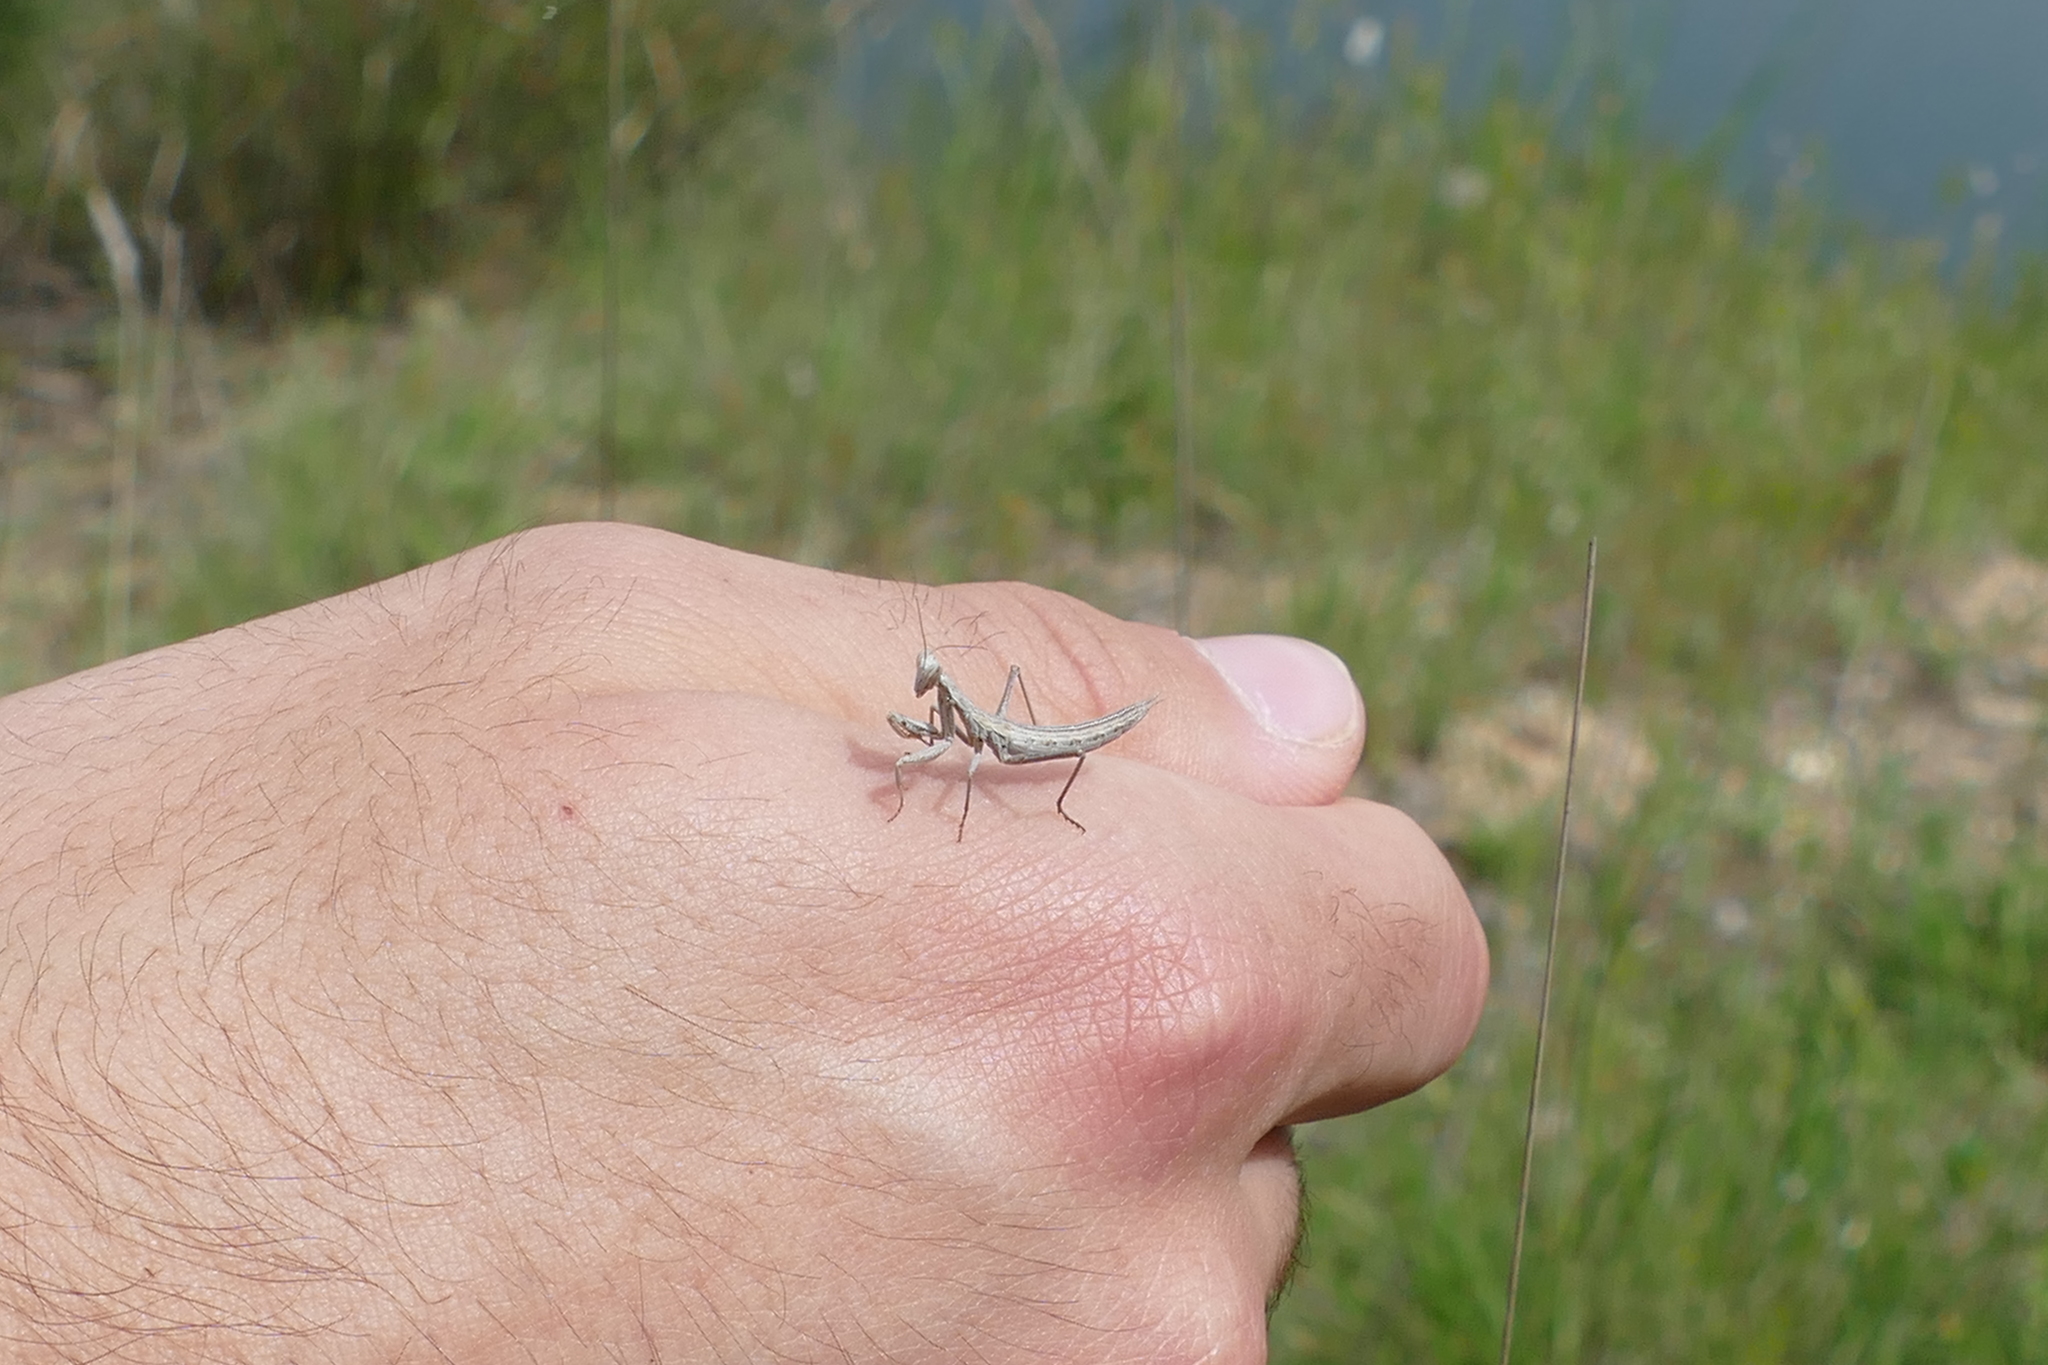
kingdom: Animalia
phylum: Arthropoda
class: Insecta
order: Mantodea
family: Amelidae
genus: Ameles
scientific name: Ameles picteti
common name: Pictet's dwarf mantis
